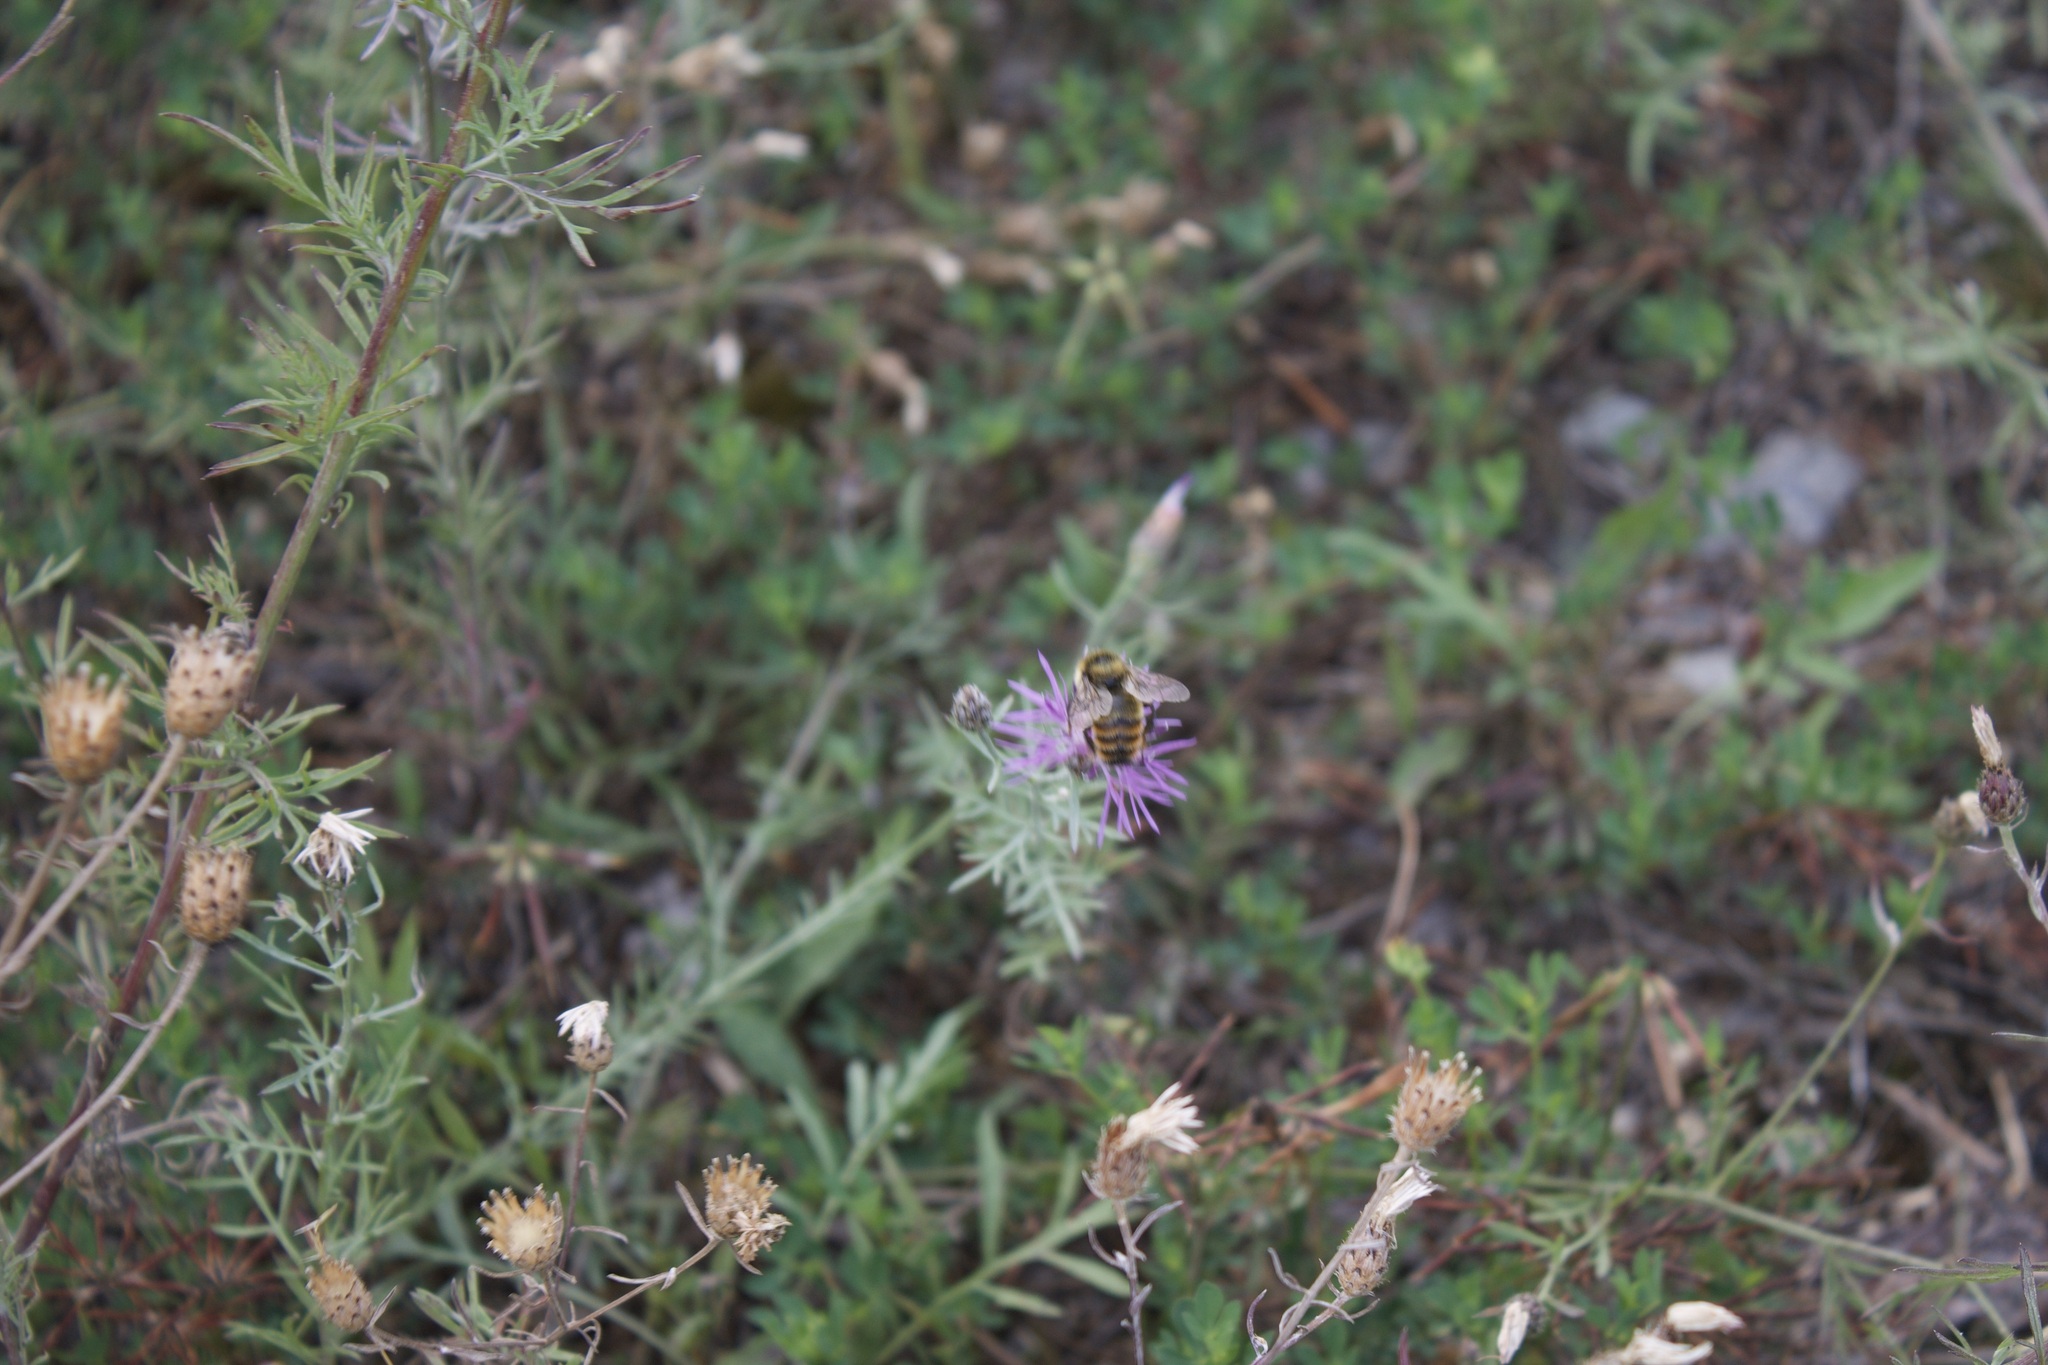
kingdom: Animalia
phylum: Arthropoda
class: Insecta
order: Hymenoptera
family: Apidae
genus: Bombus
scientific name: Bombus rufocinctus
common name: Red-belted bumble bee
